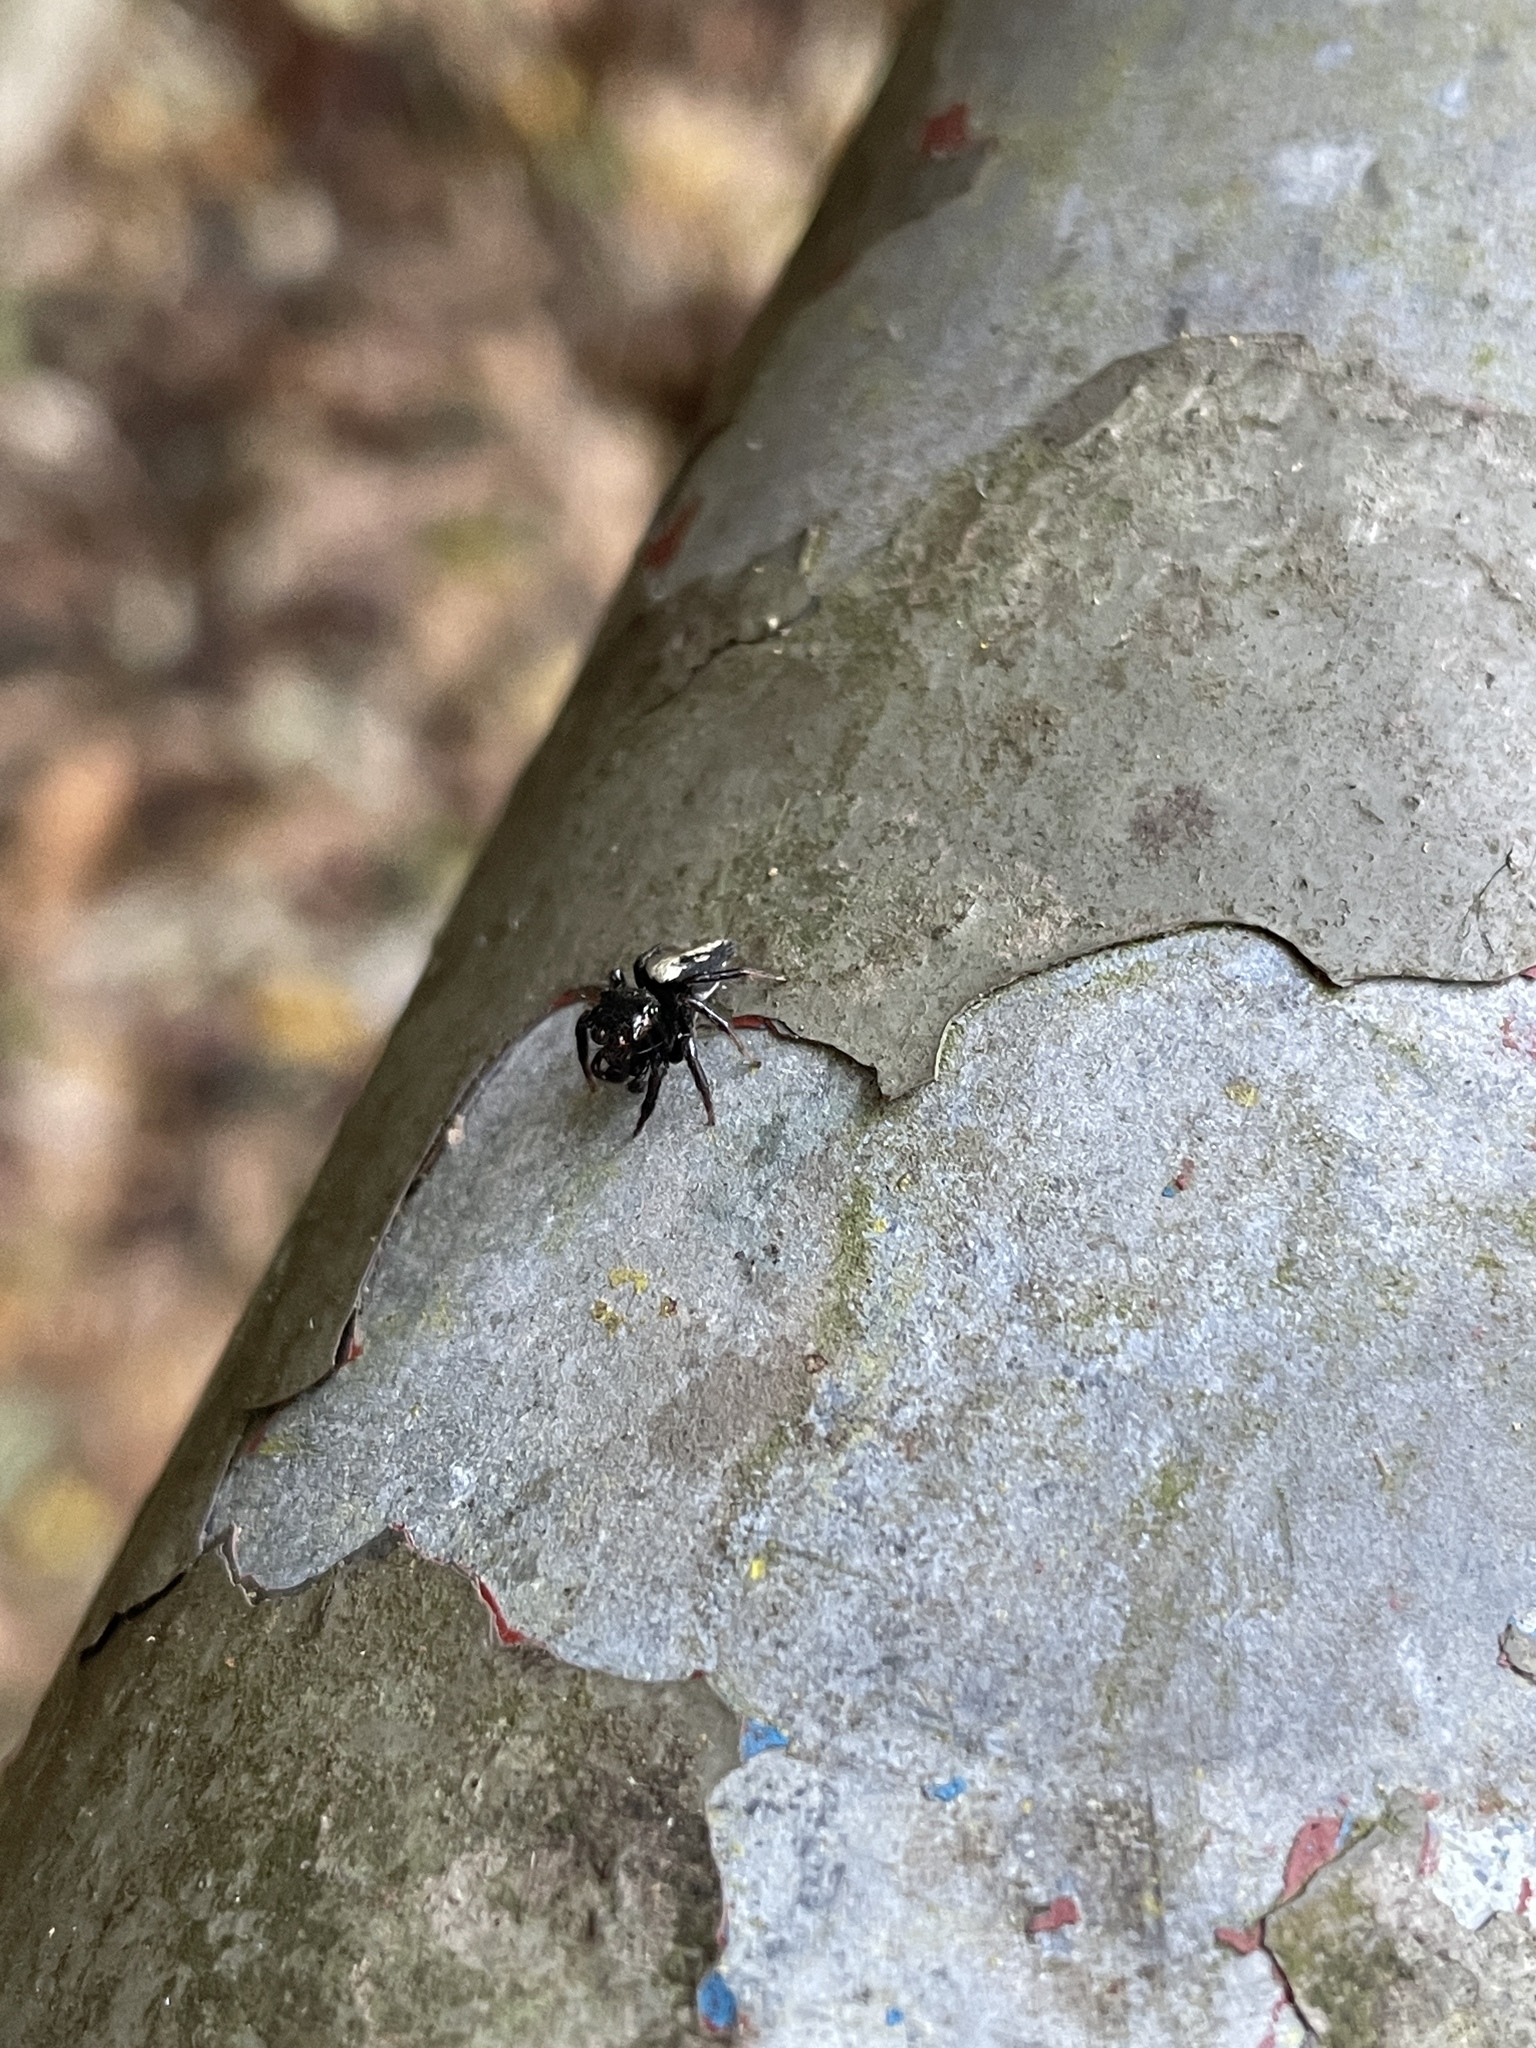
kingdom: Animalia
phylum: Arthropoda
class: Arachnida
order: Araneae
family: Salticidae
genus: Ptocasius
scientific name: Ptocasius strupifer
